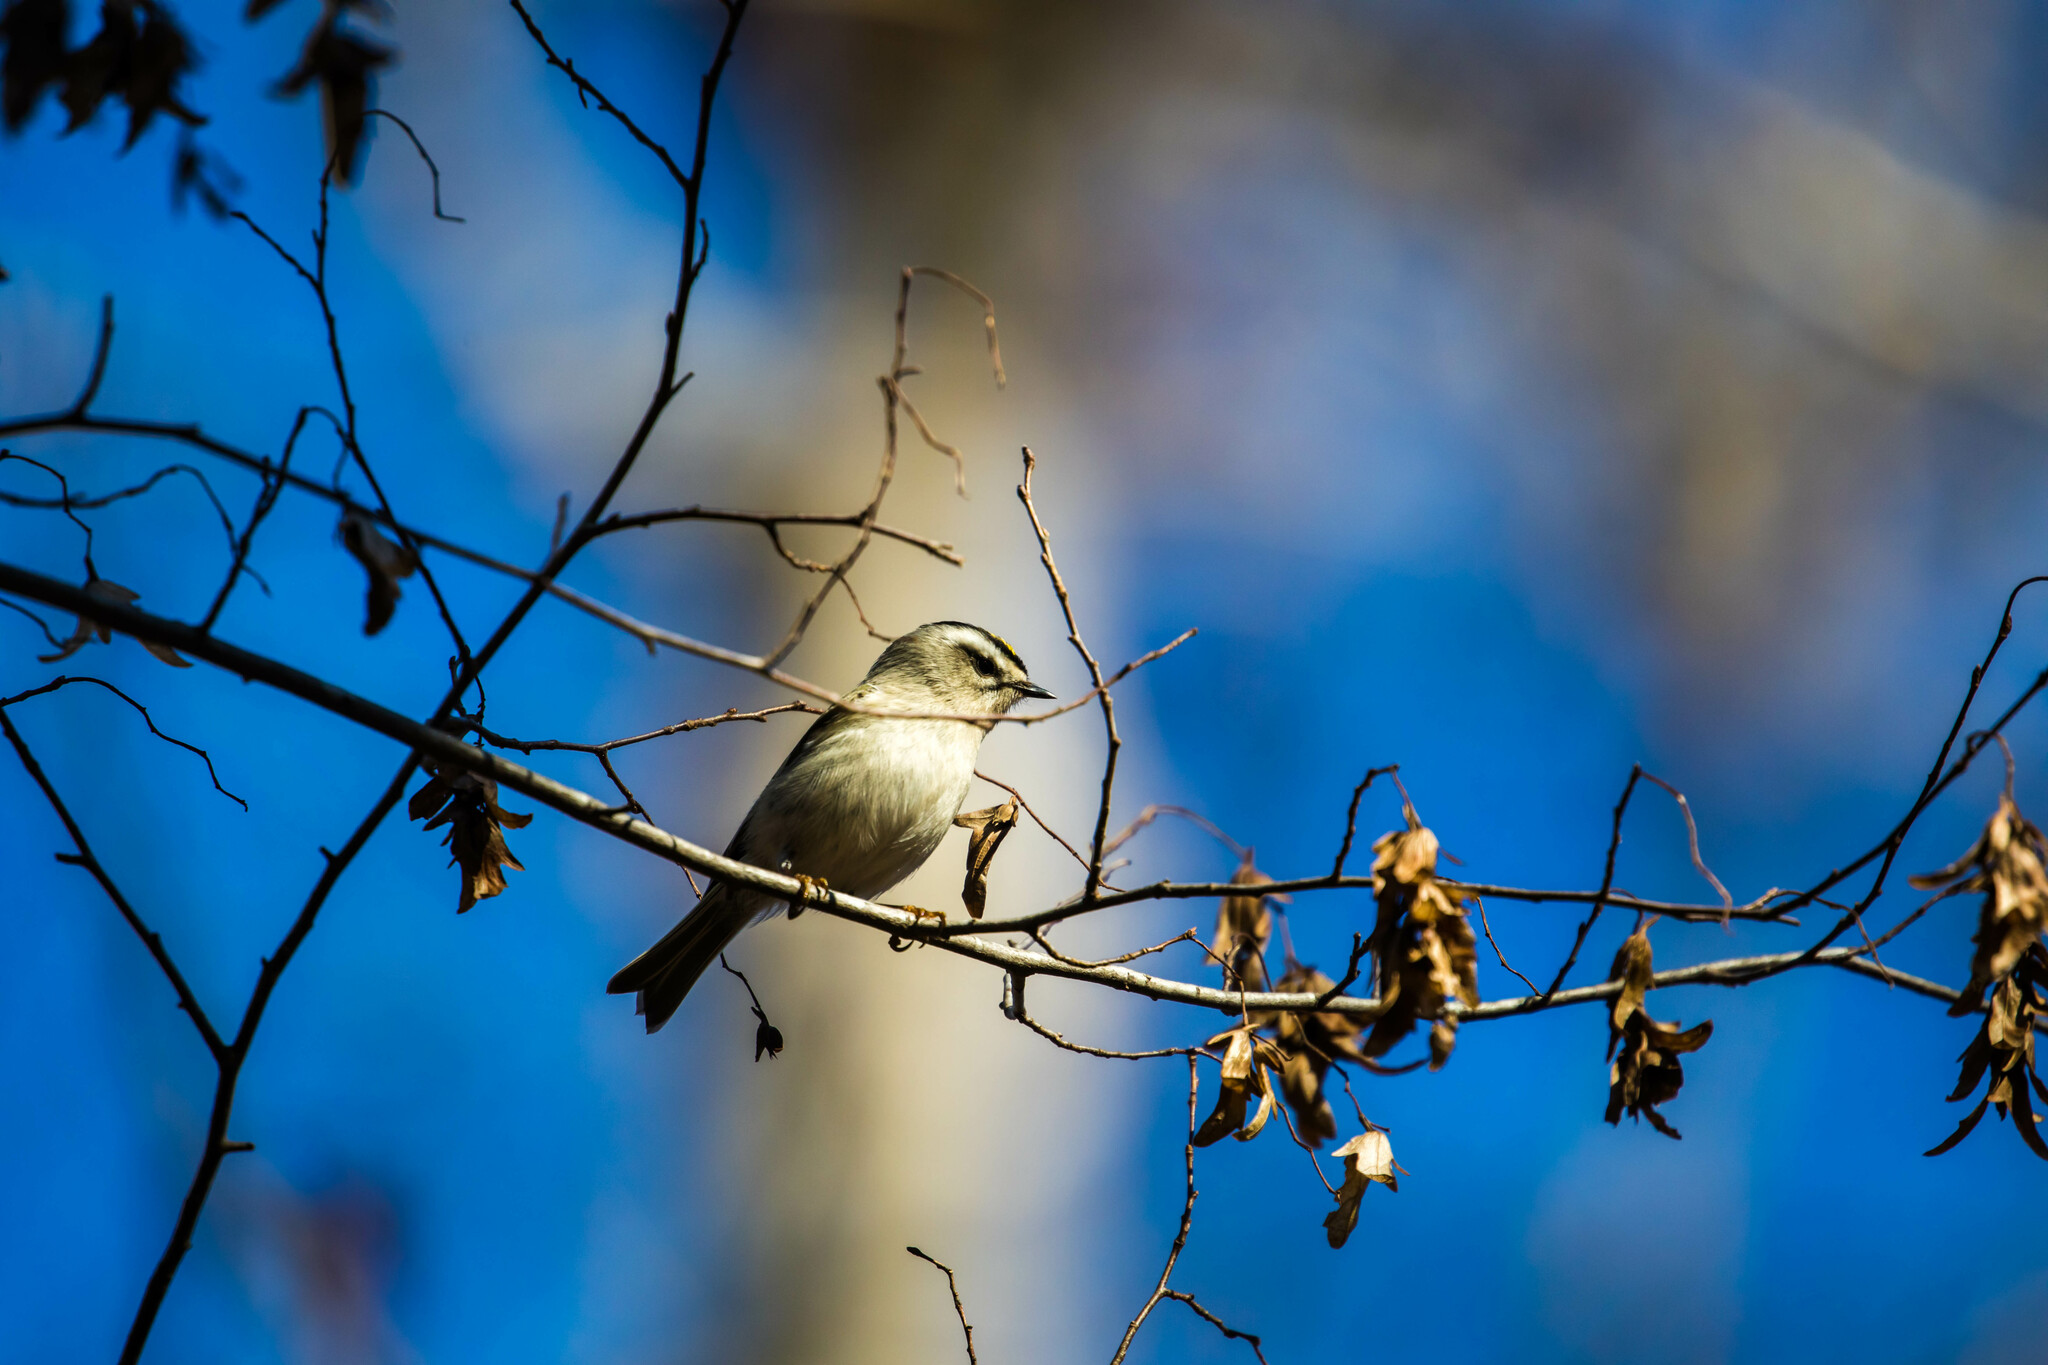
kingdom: Animalia
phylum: Chordata
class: Aves
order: Passeriformes
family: Regulidae
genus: Regulus
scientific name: Regulus satrapa
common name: Golden-crowned kinglet
